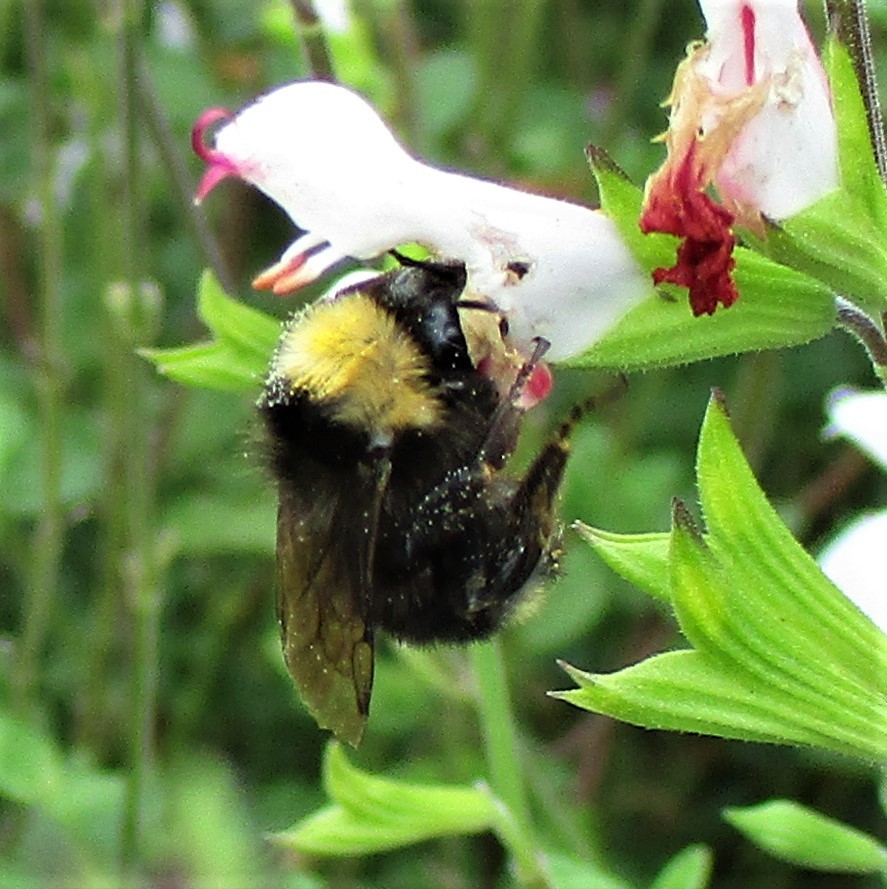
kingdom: Animalia
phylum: Arthropoda
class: Insecta
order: Hymenoptera
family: Apidae
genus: Bombus
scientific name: Bombus californicus
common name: California bumble bee
